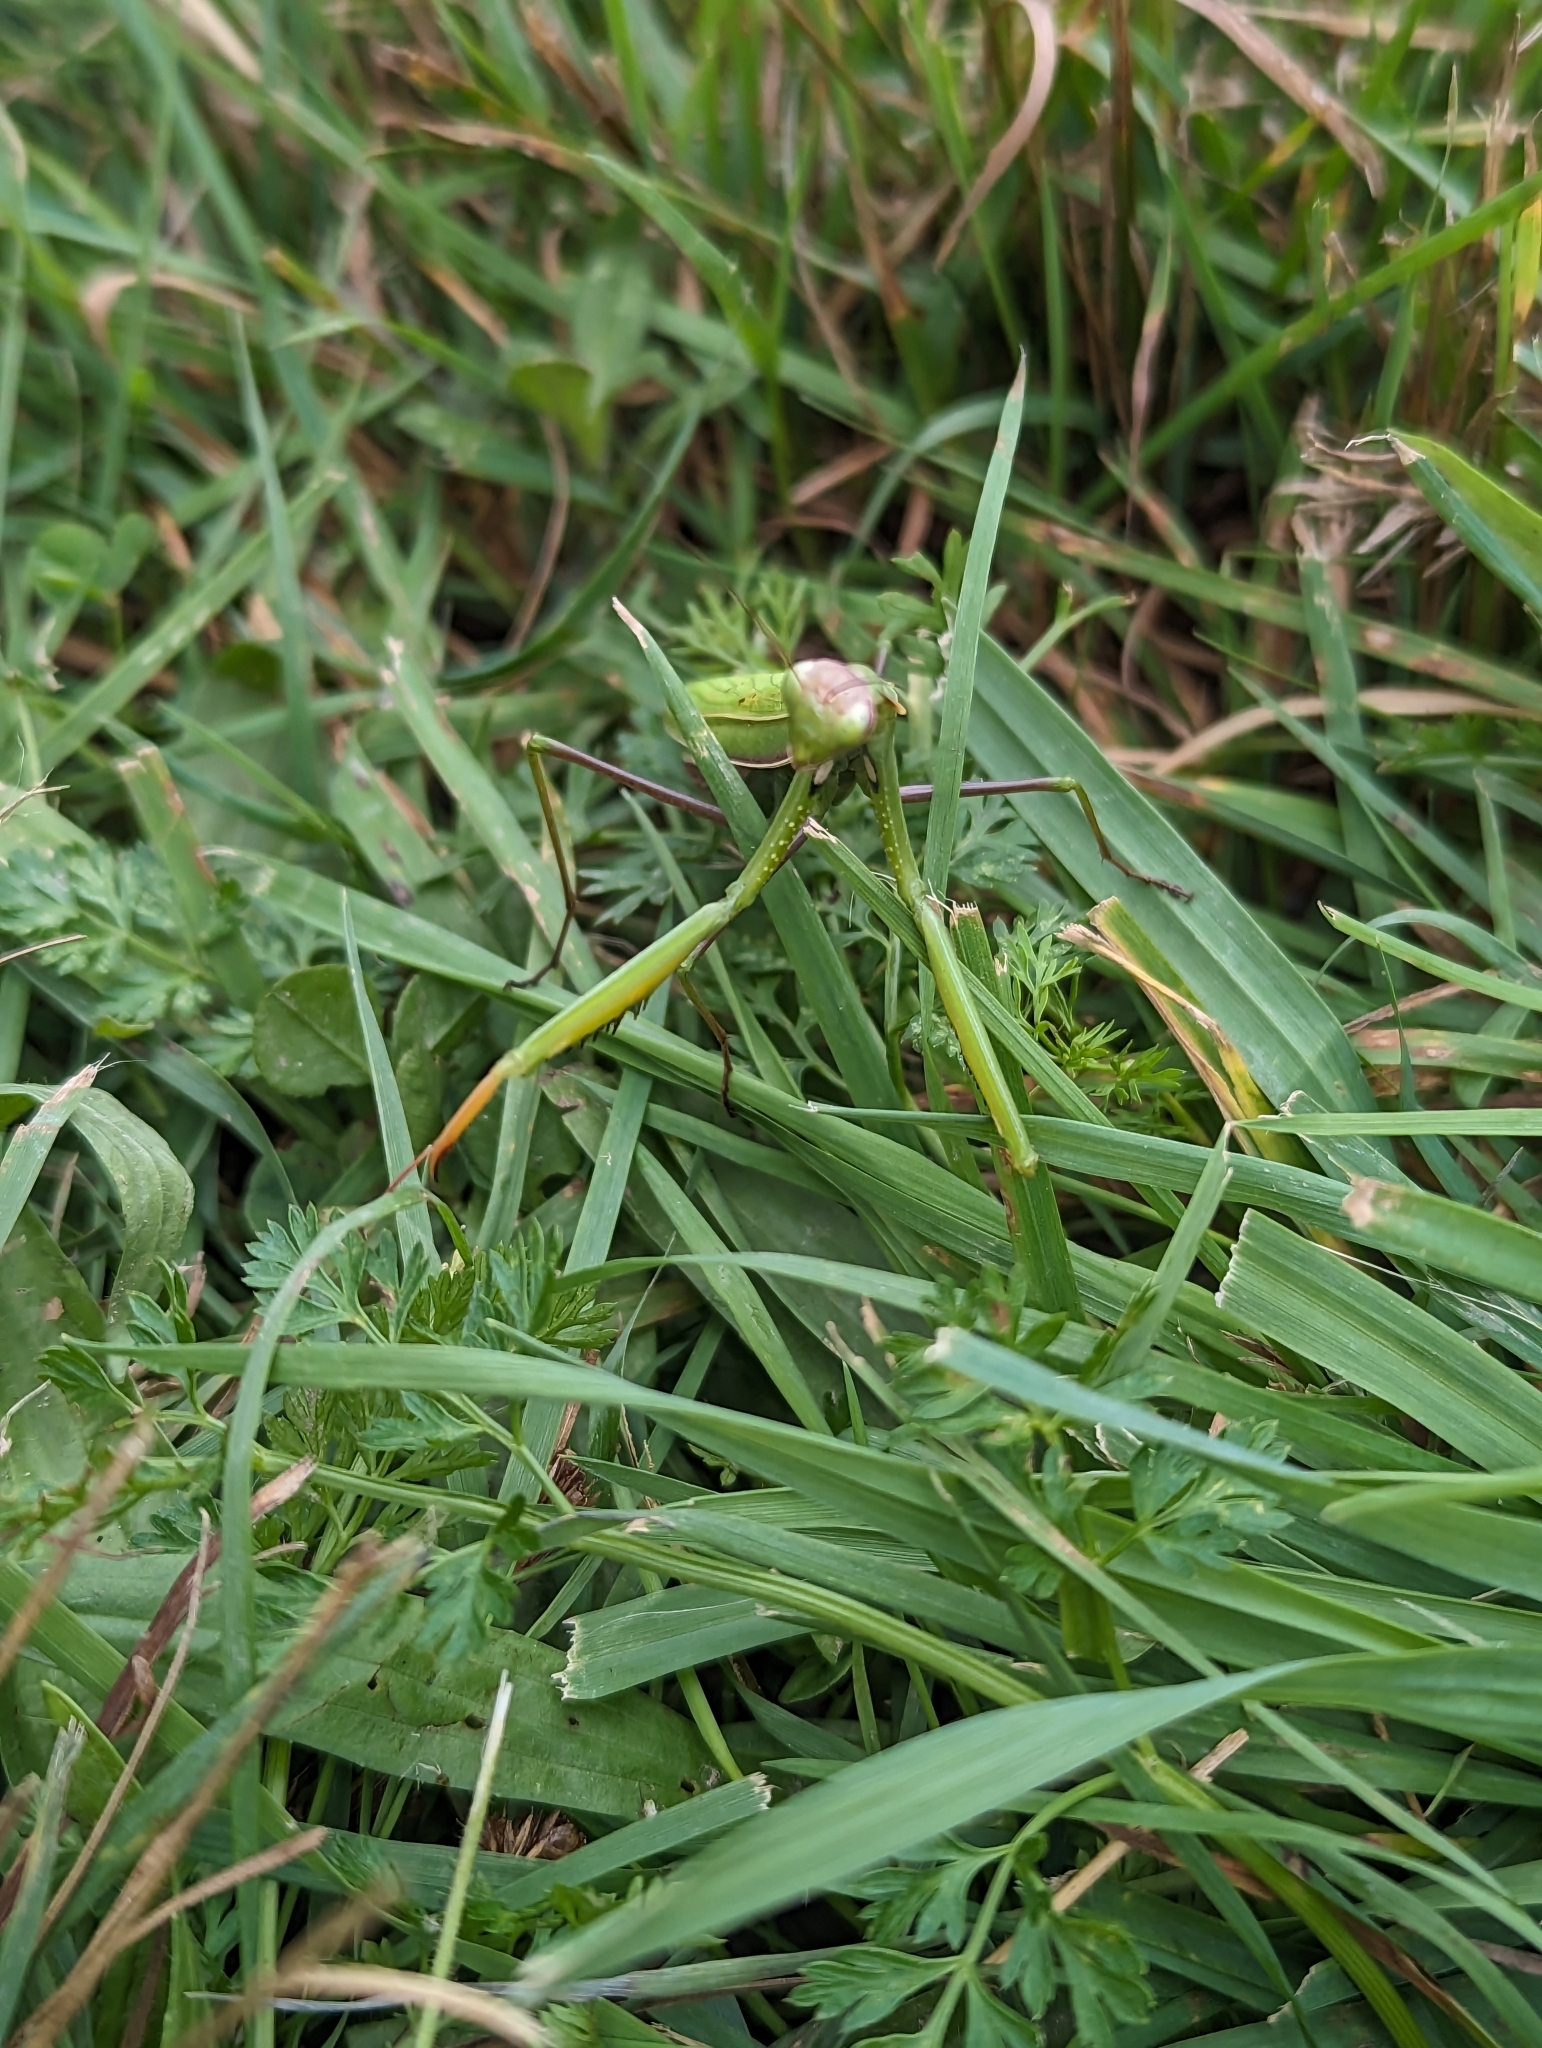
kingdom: Animalia
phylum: Arthropoda
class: Insecta
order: Mantodea
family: Mantidae
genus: Mantis
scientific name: Mantis religiosa
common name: Praying mantis
